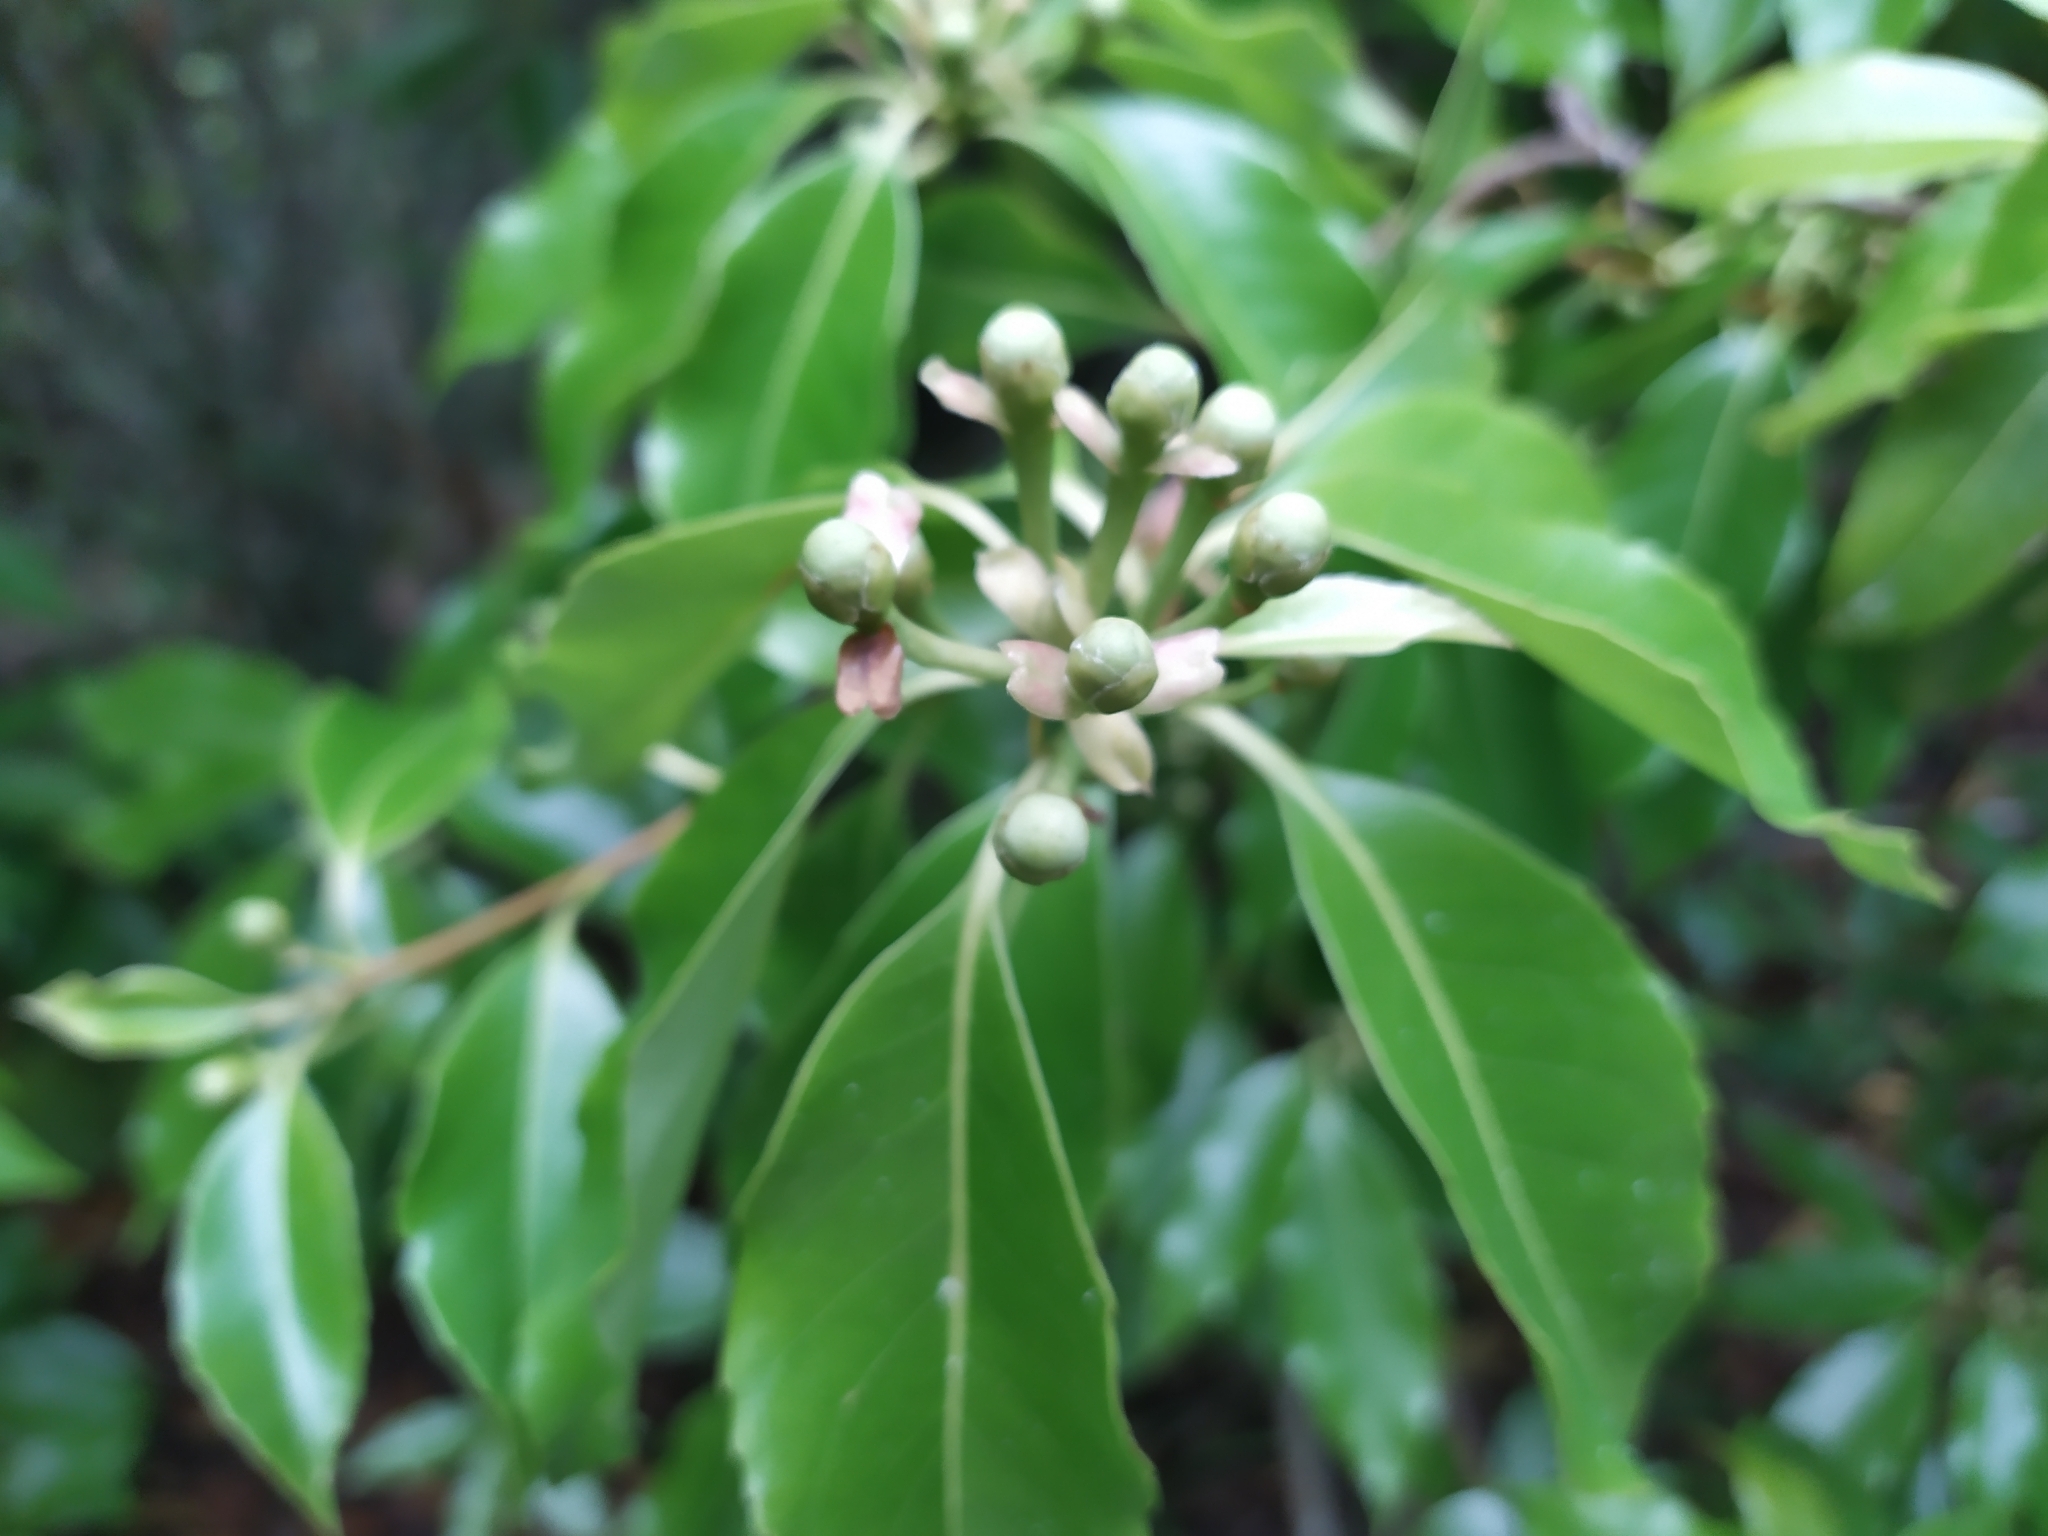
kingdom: Plantae
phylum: Tracheophyta
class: Magnoliopsida
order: Ericales
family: Theaceae
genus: Schima
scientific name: Schima superba
